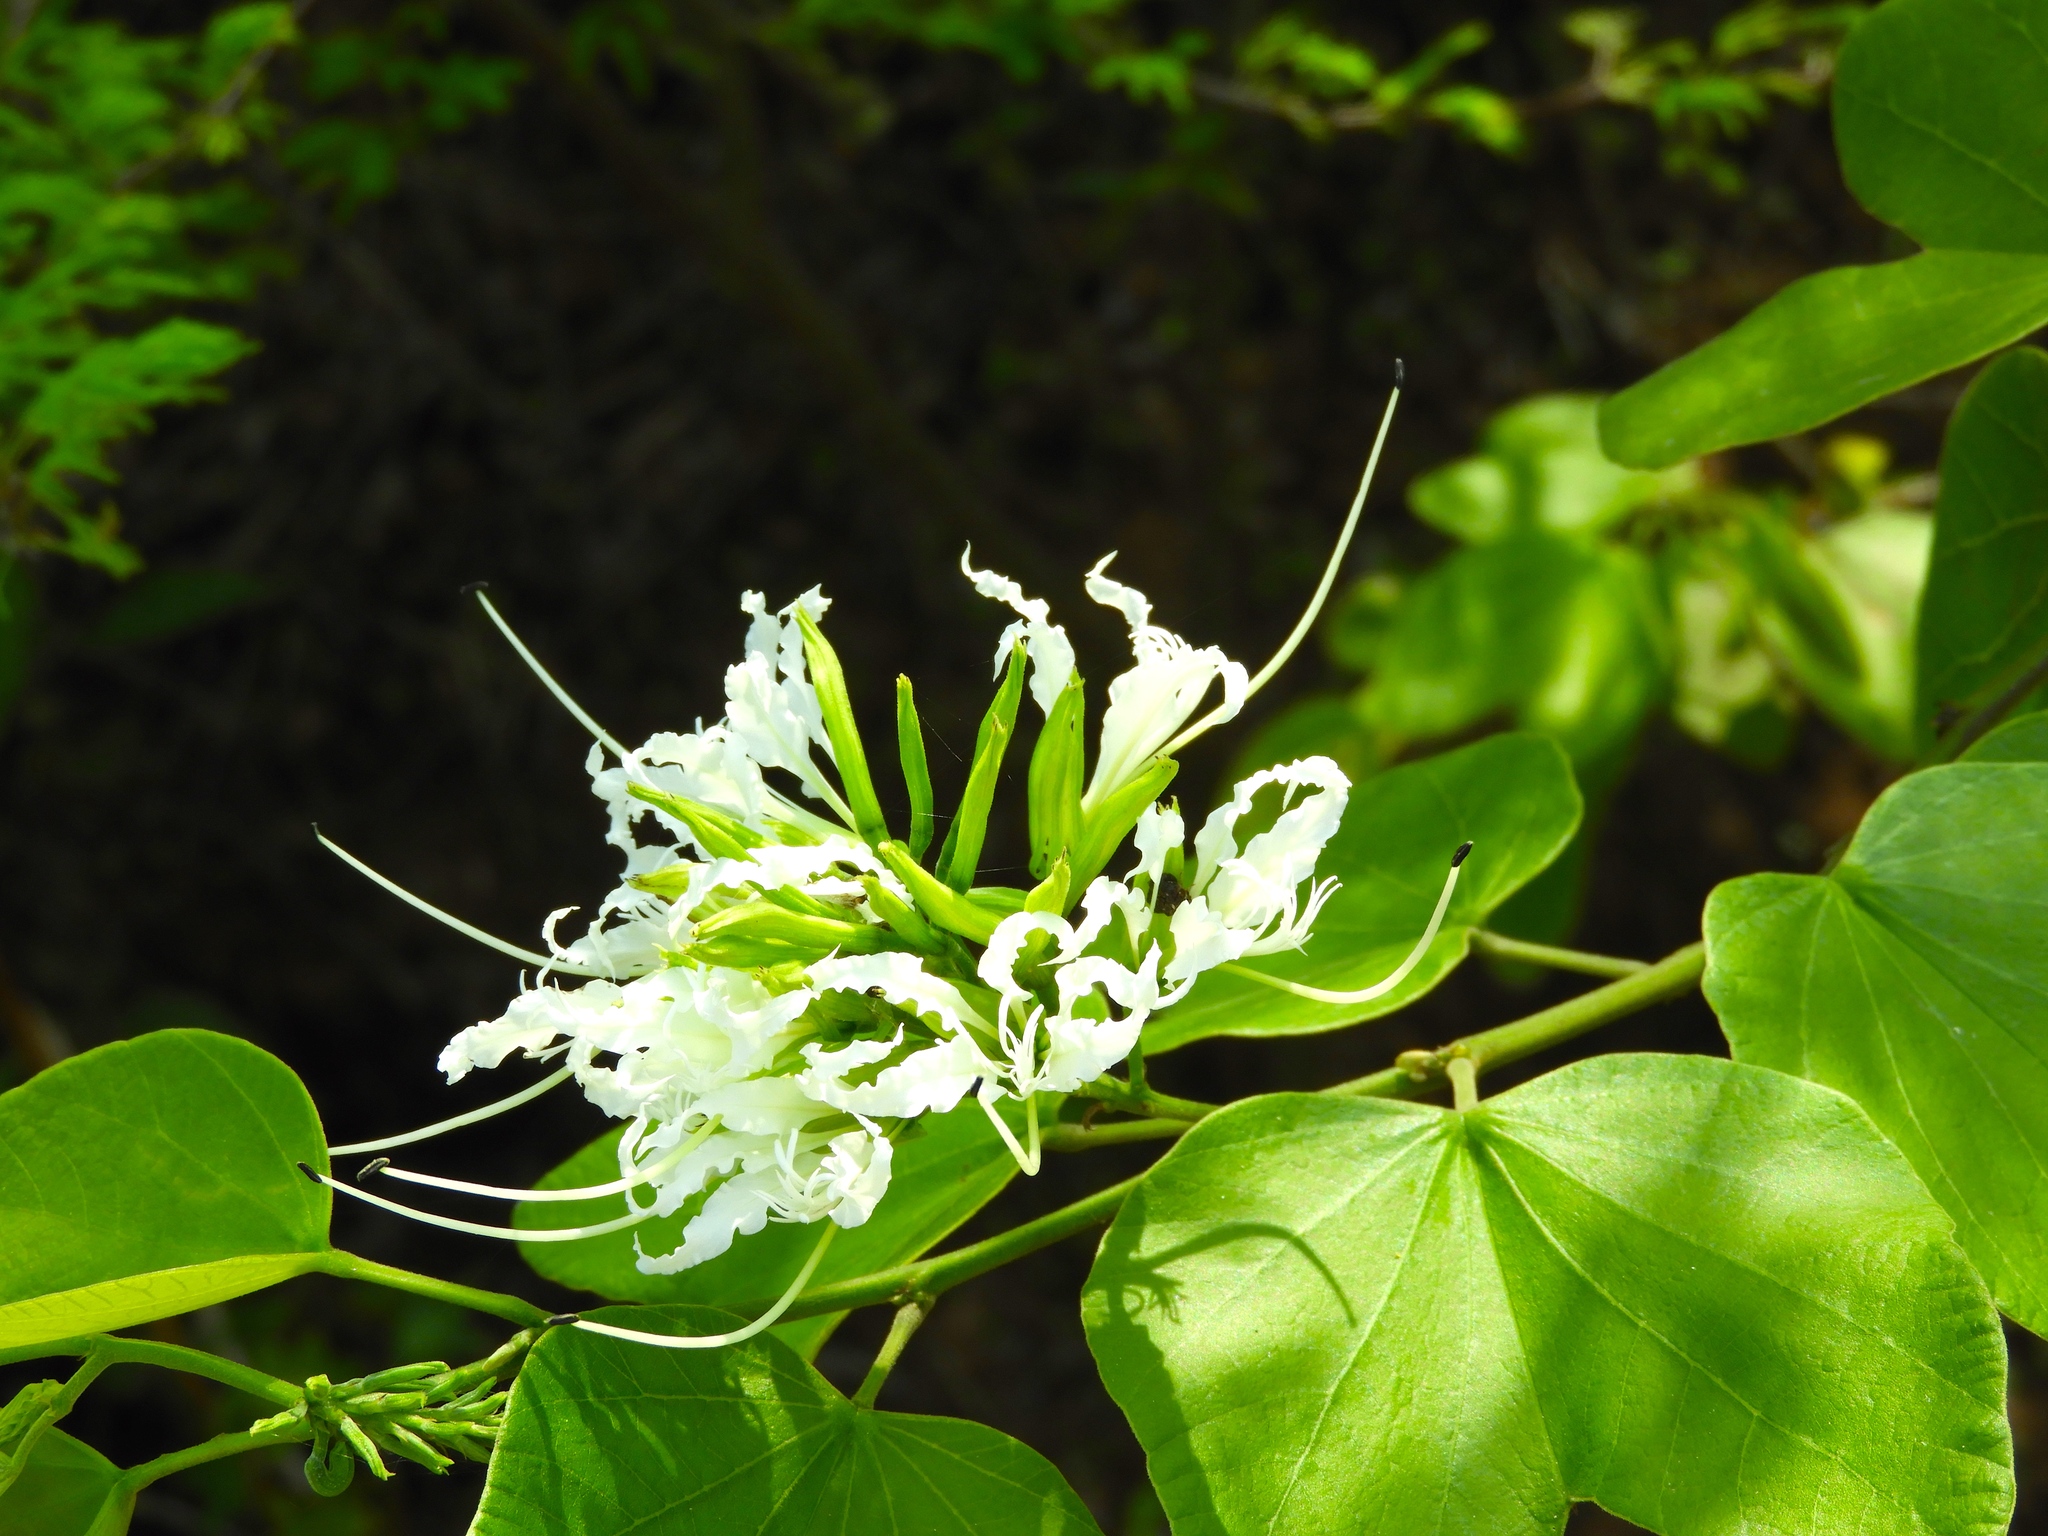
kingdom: Plantae
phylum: Tracheophyta
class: Magnoliopsida
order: Fabales
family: Fabaceae
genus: Bauhinia
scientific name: Bauhinia divaricata
